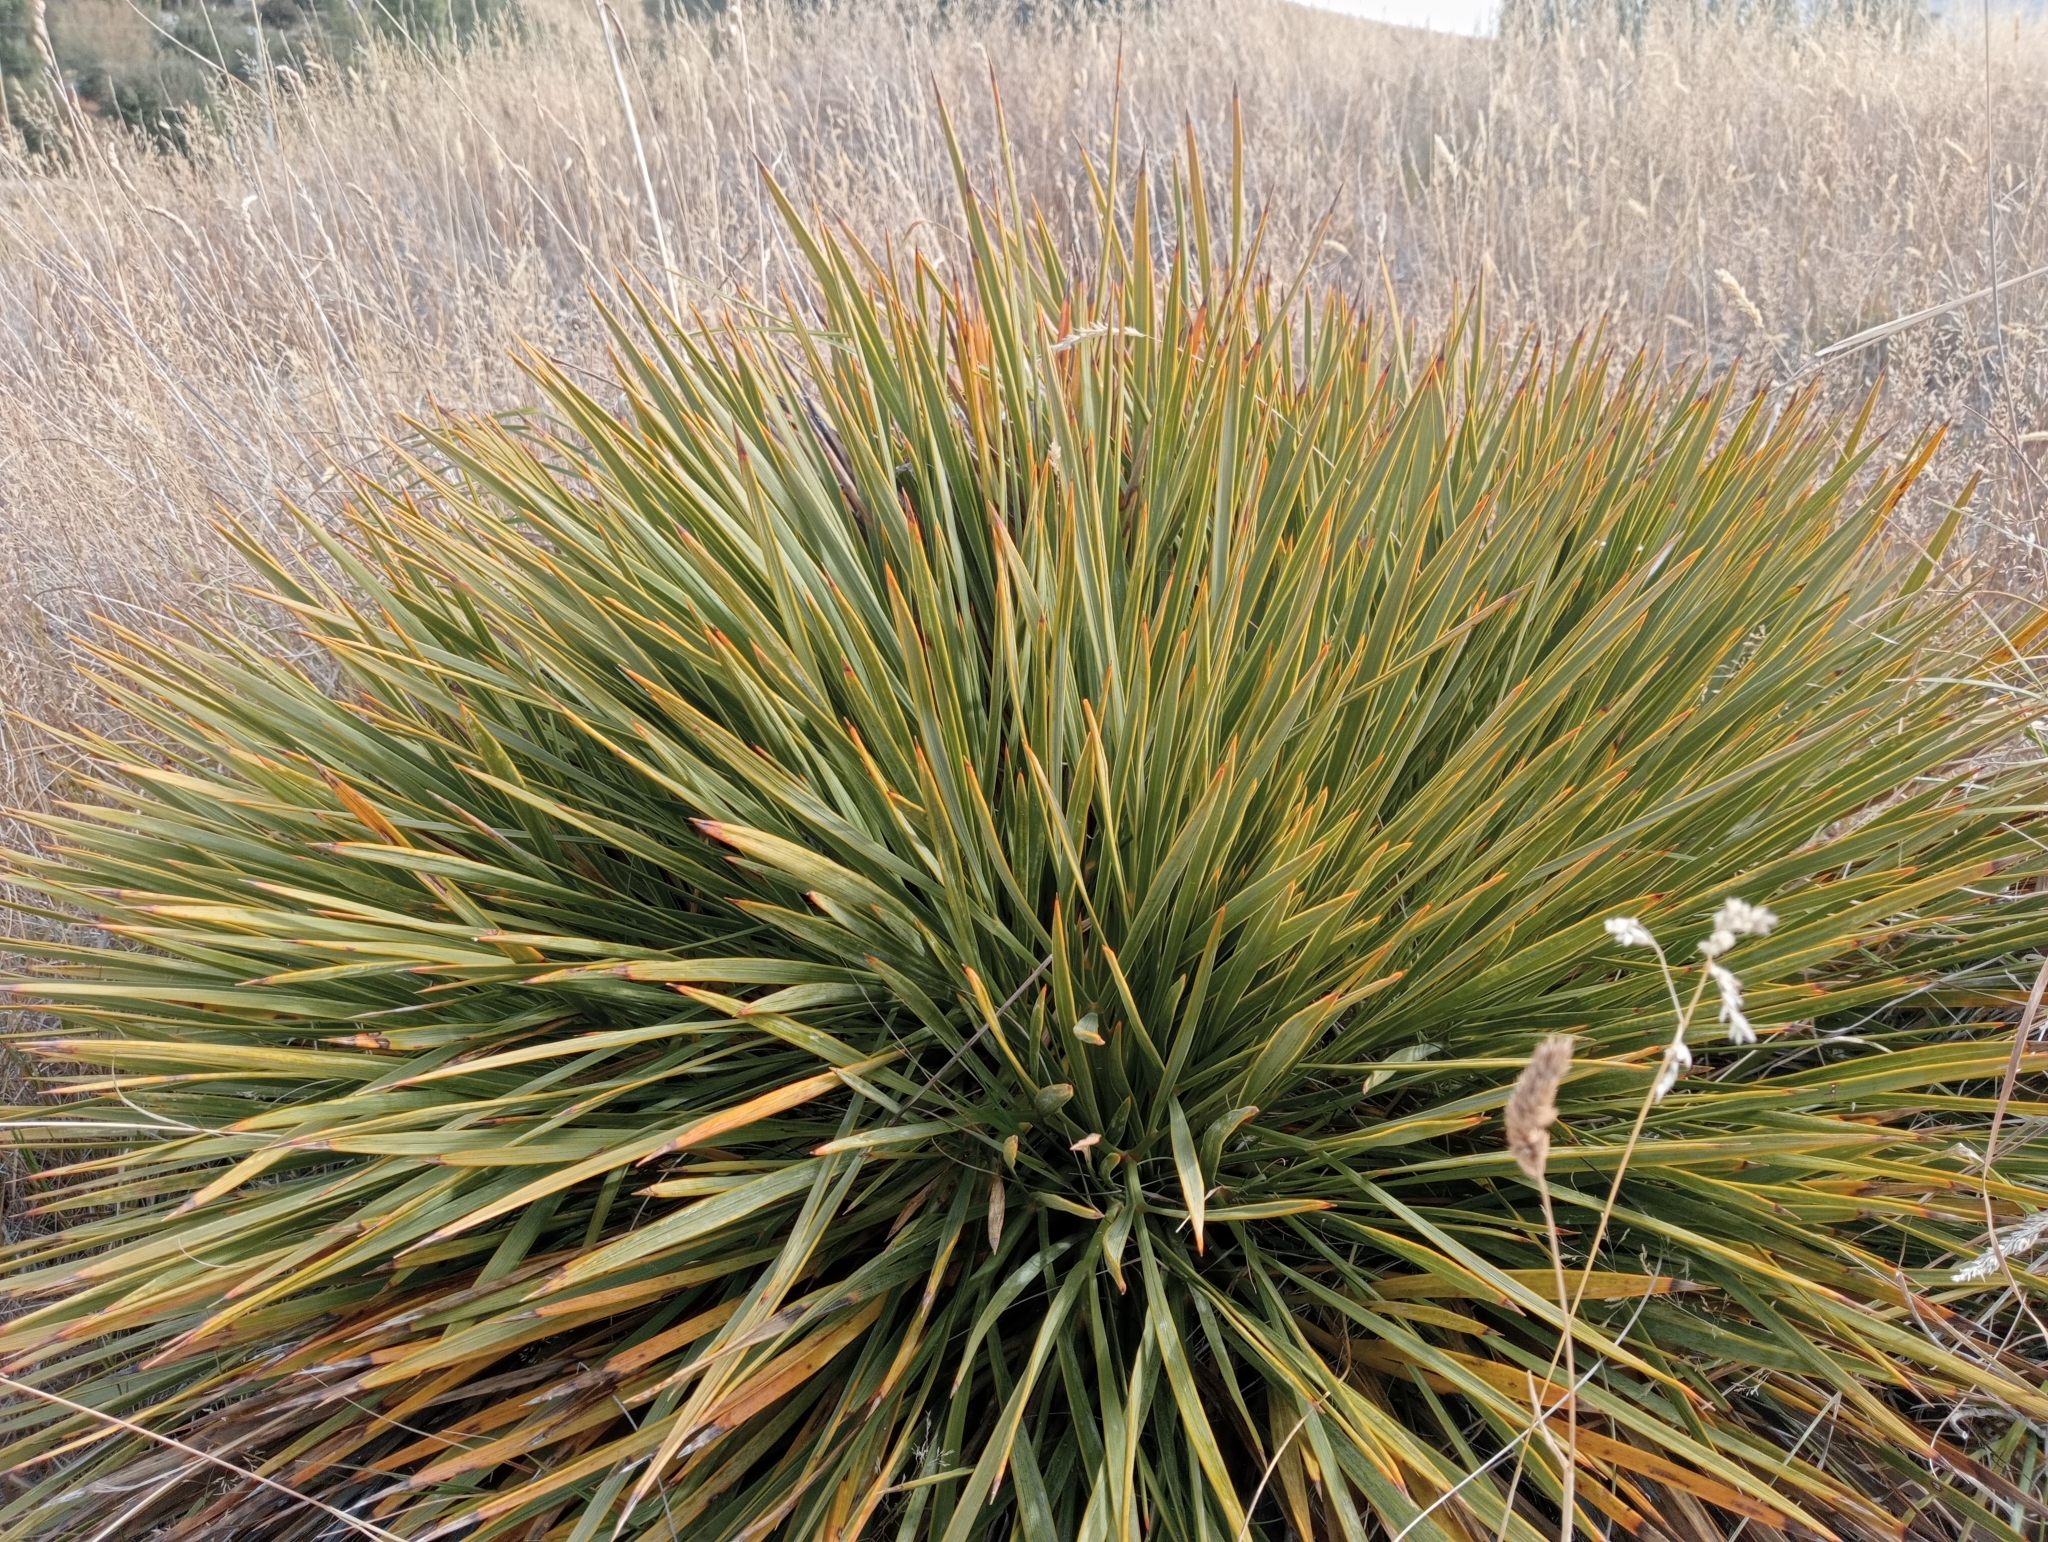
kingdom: Plantae
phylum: Tracheophyta
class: Magnoliopsida
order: Apiales
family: Apiaceae
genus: Aciphylla
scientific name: Aciphylla aurea
